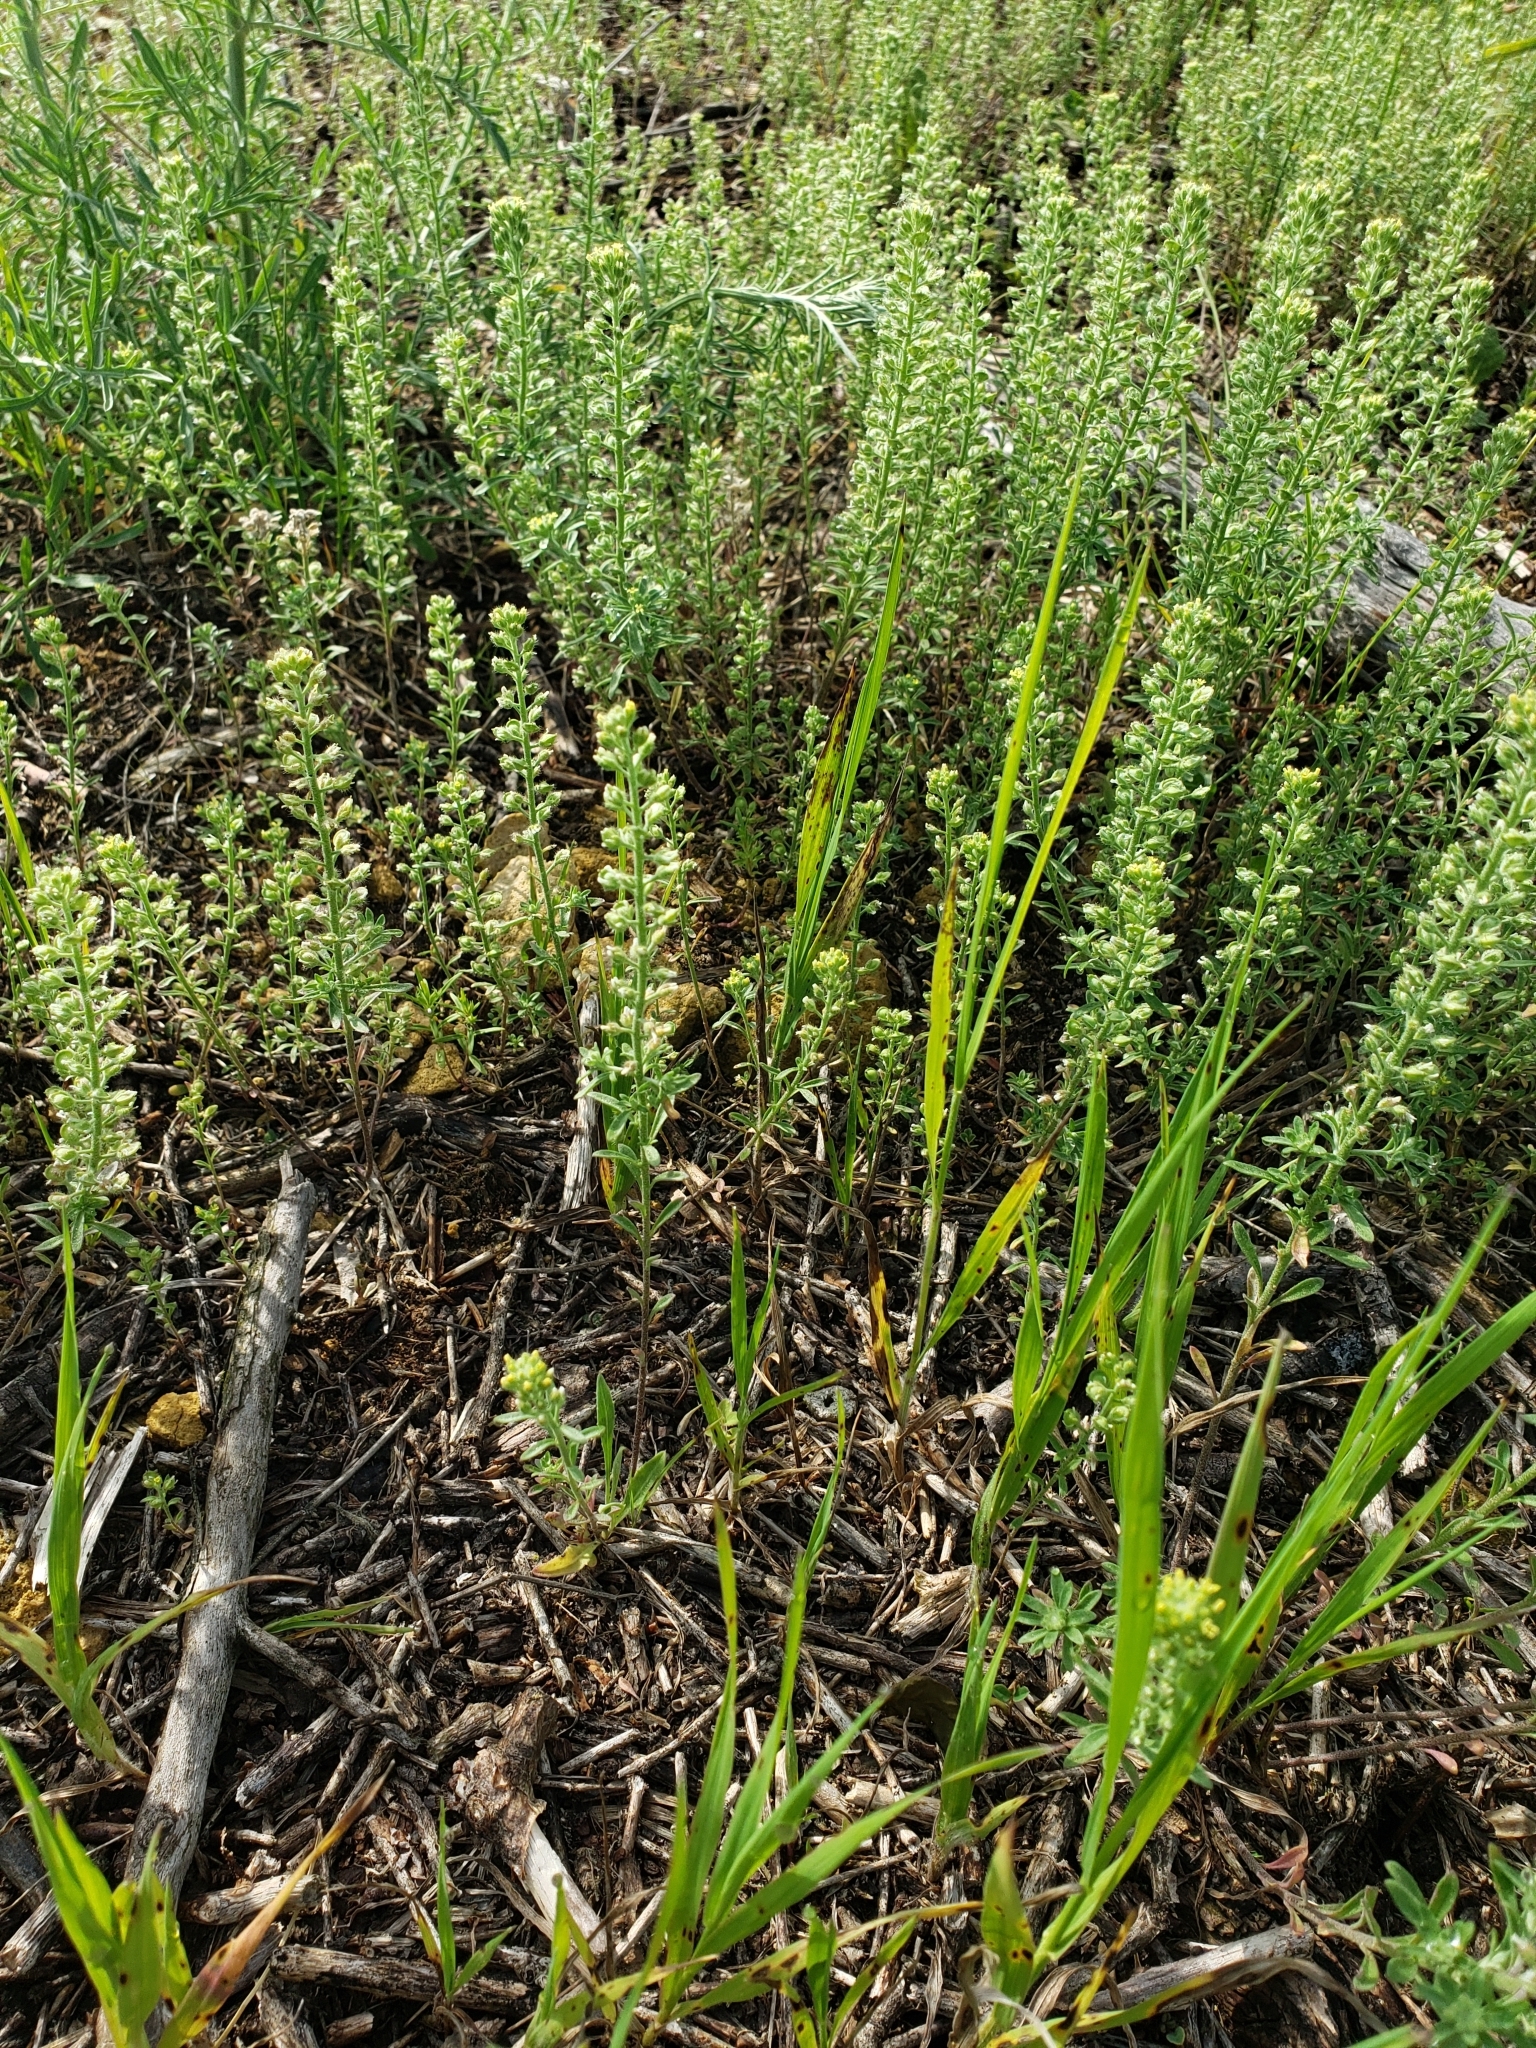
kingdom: Plantae
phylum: Tracheophyta
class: Magnoliopsida
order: Brassicales
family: Brassicaceae
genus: Alyssum
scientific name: Alyssum alyssoides
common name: Small alison
